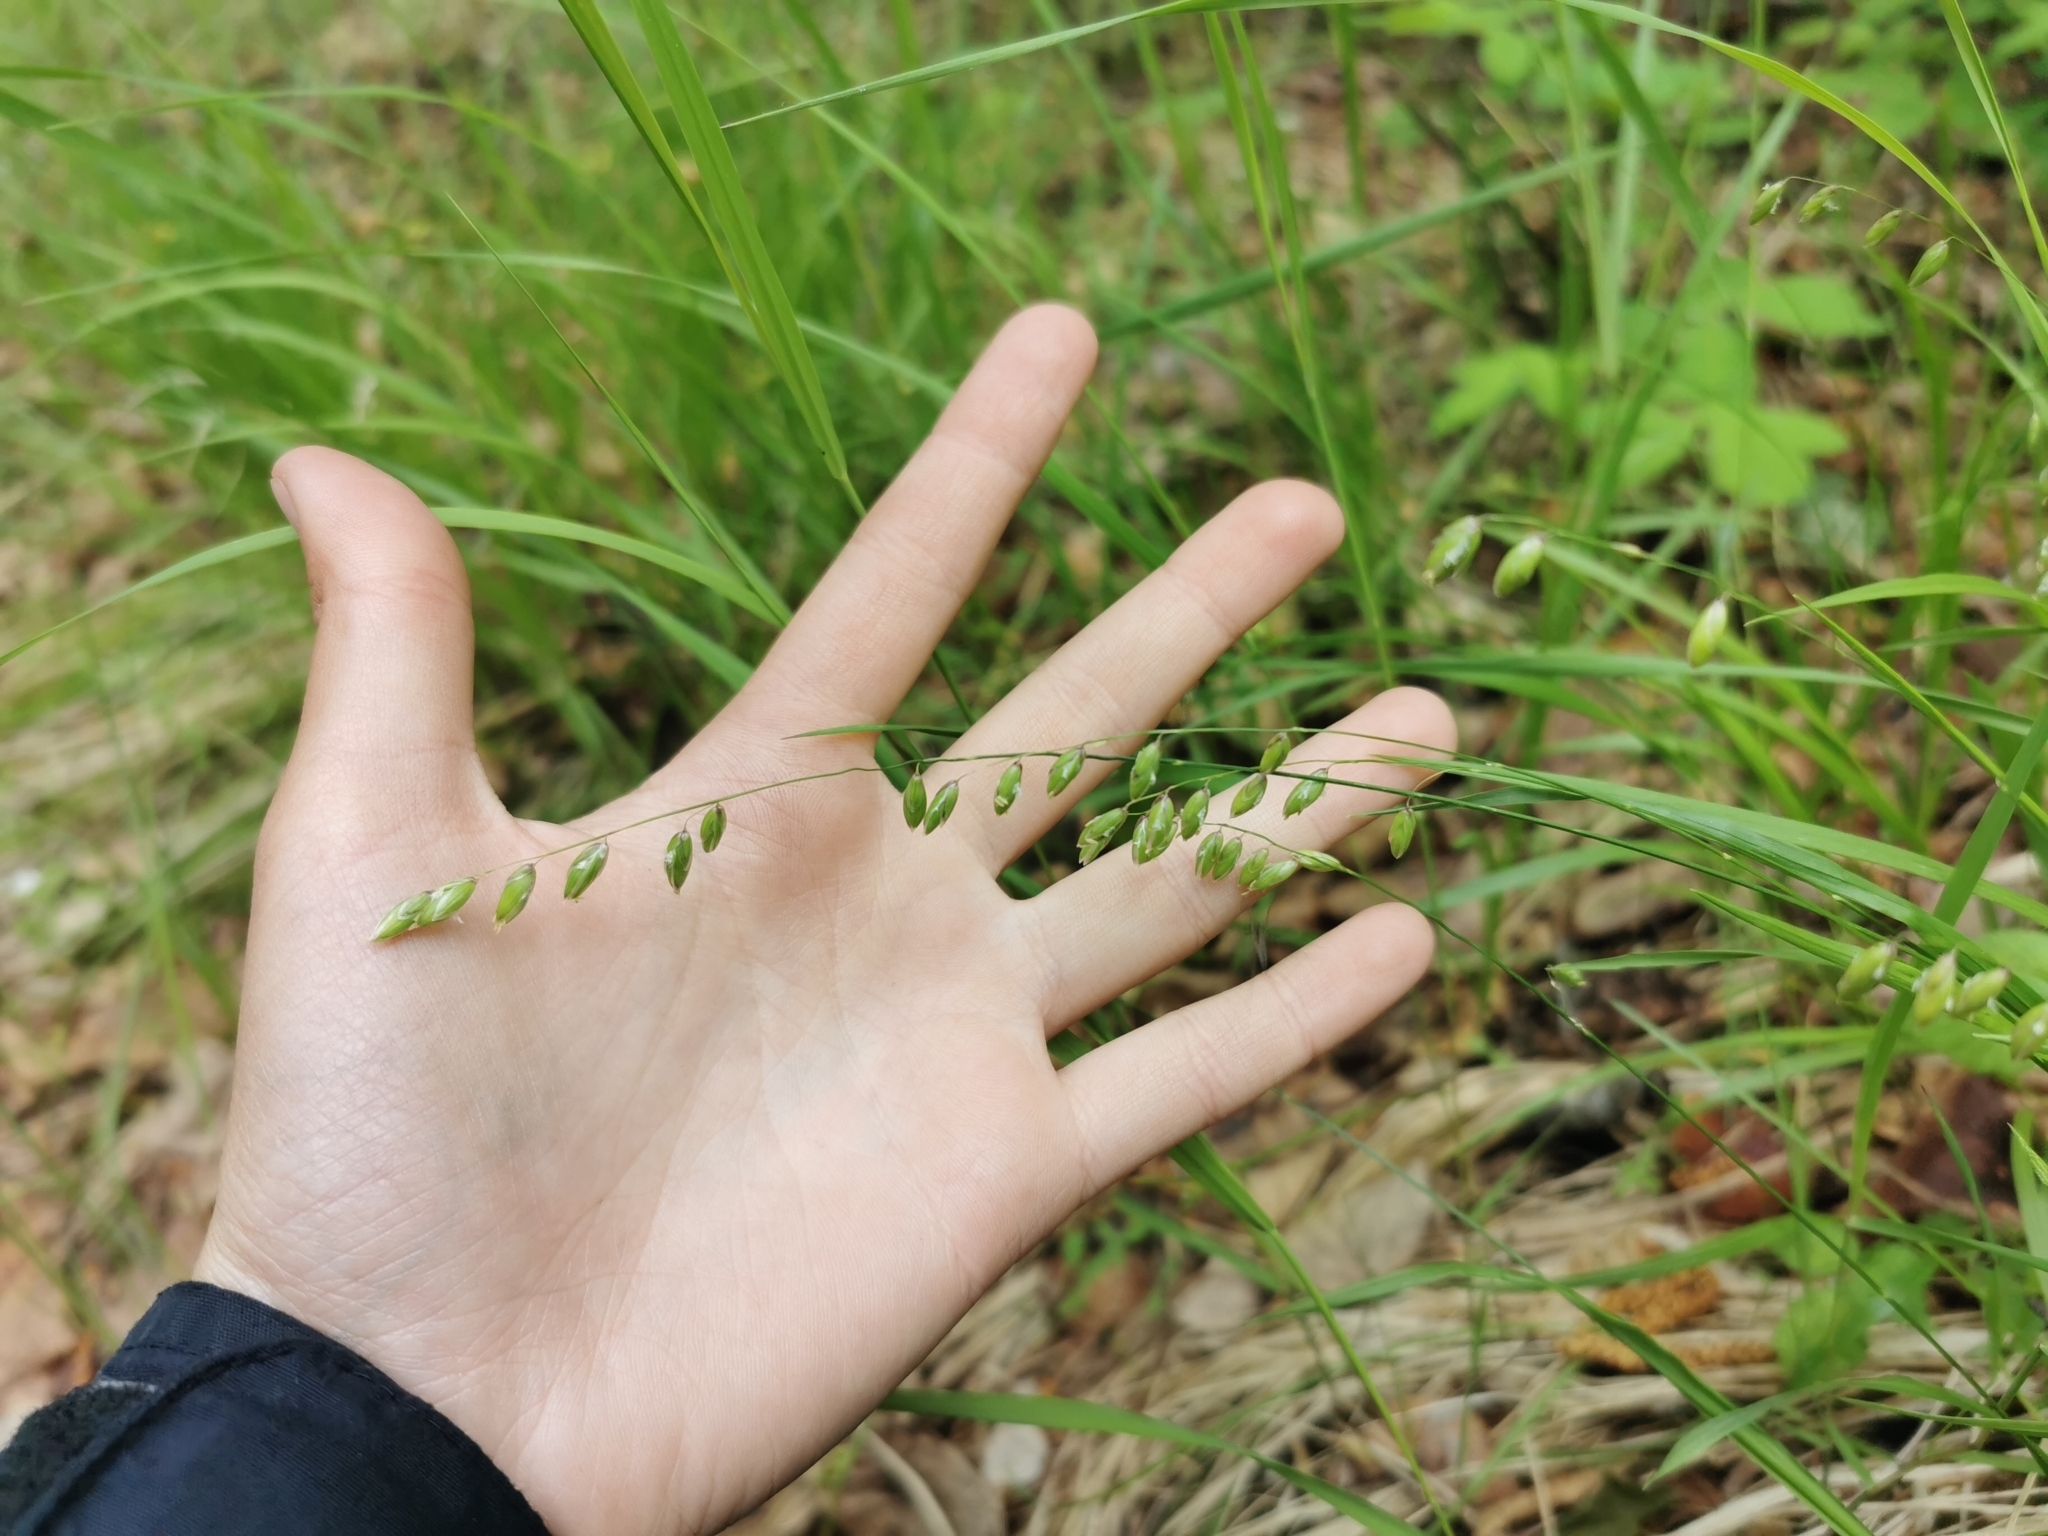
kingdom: Plantae
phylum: Tracheophyta
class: Liliopsida
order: Poales
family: Poaceae
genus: Melica
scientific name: Melica nutans
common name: Mountain melick
